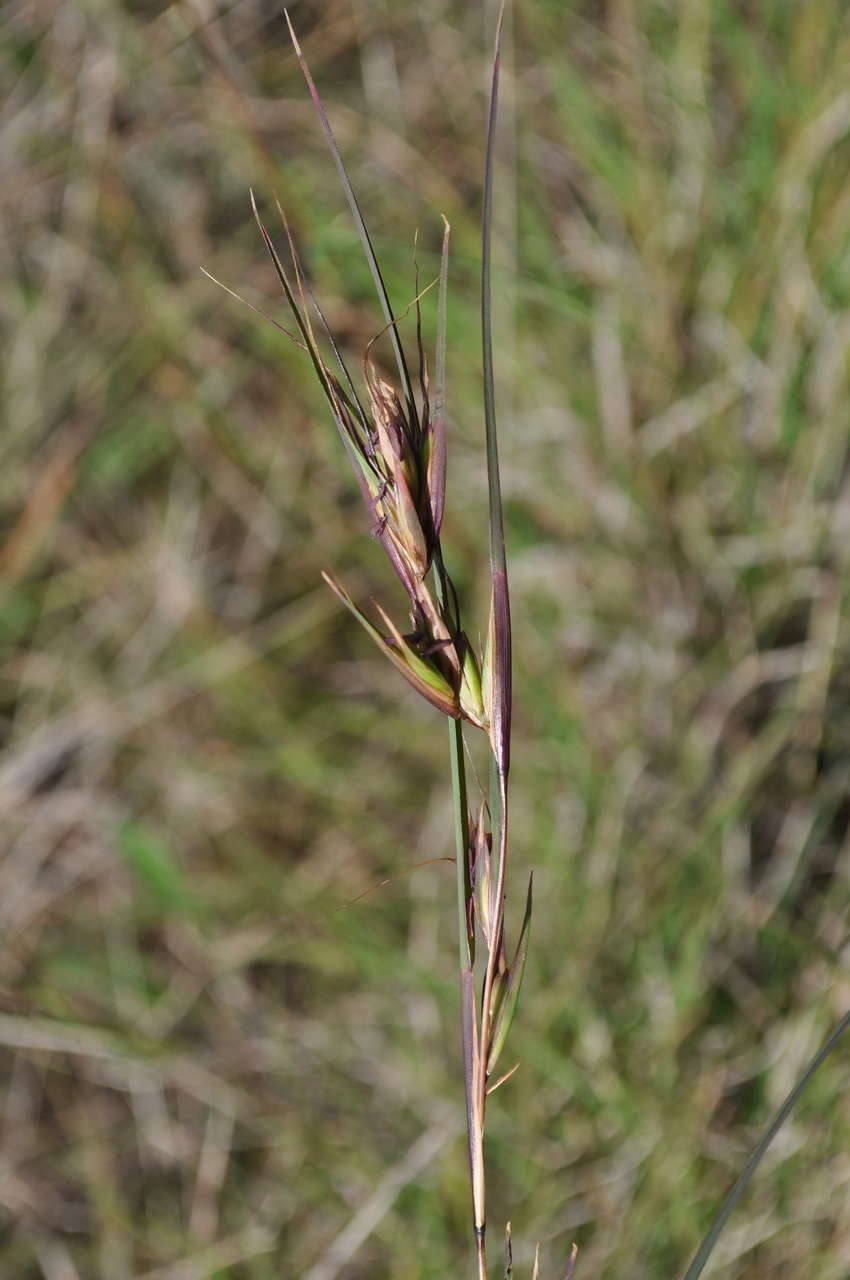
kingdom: Plantae
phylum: Tracheophyta
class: Liliopsida
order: Poales
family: Poaceae
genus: Themeda
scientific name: Themeda triandra
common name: Kangaroo grass
